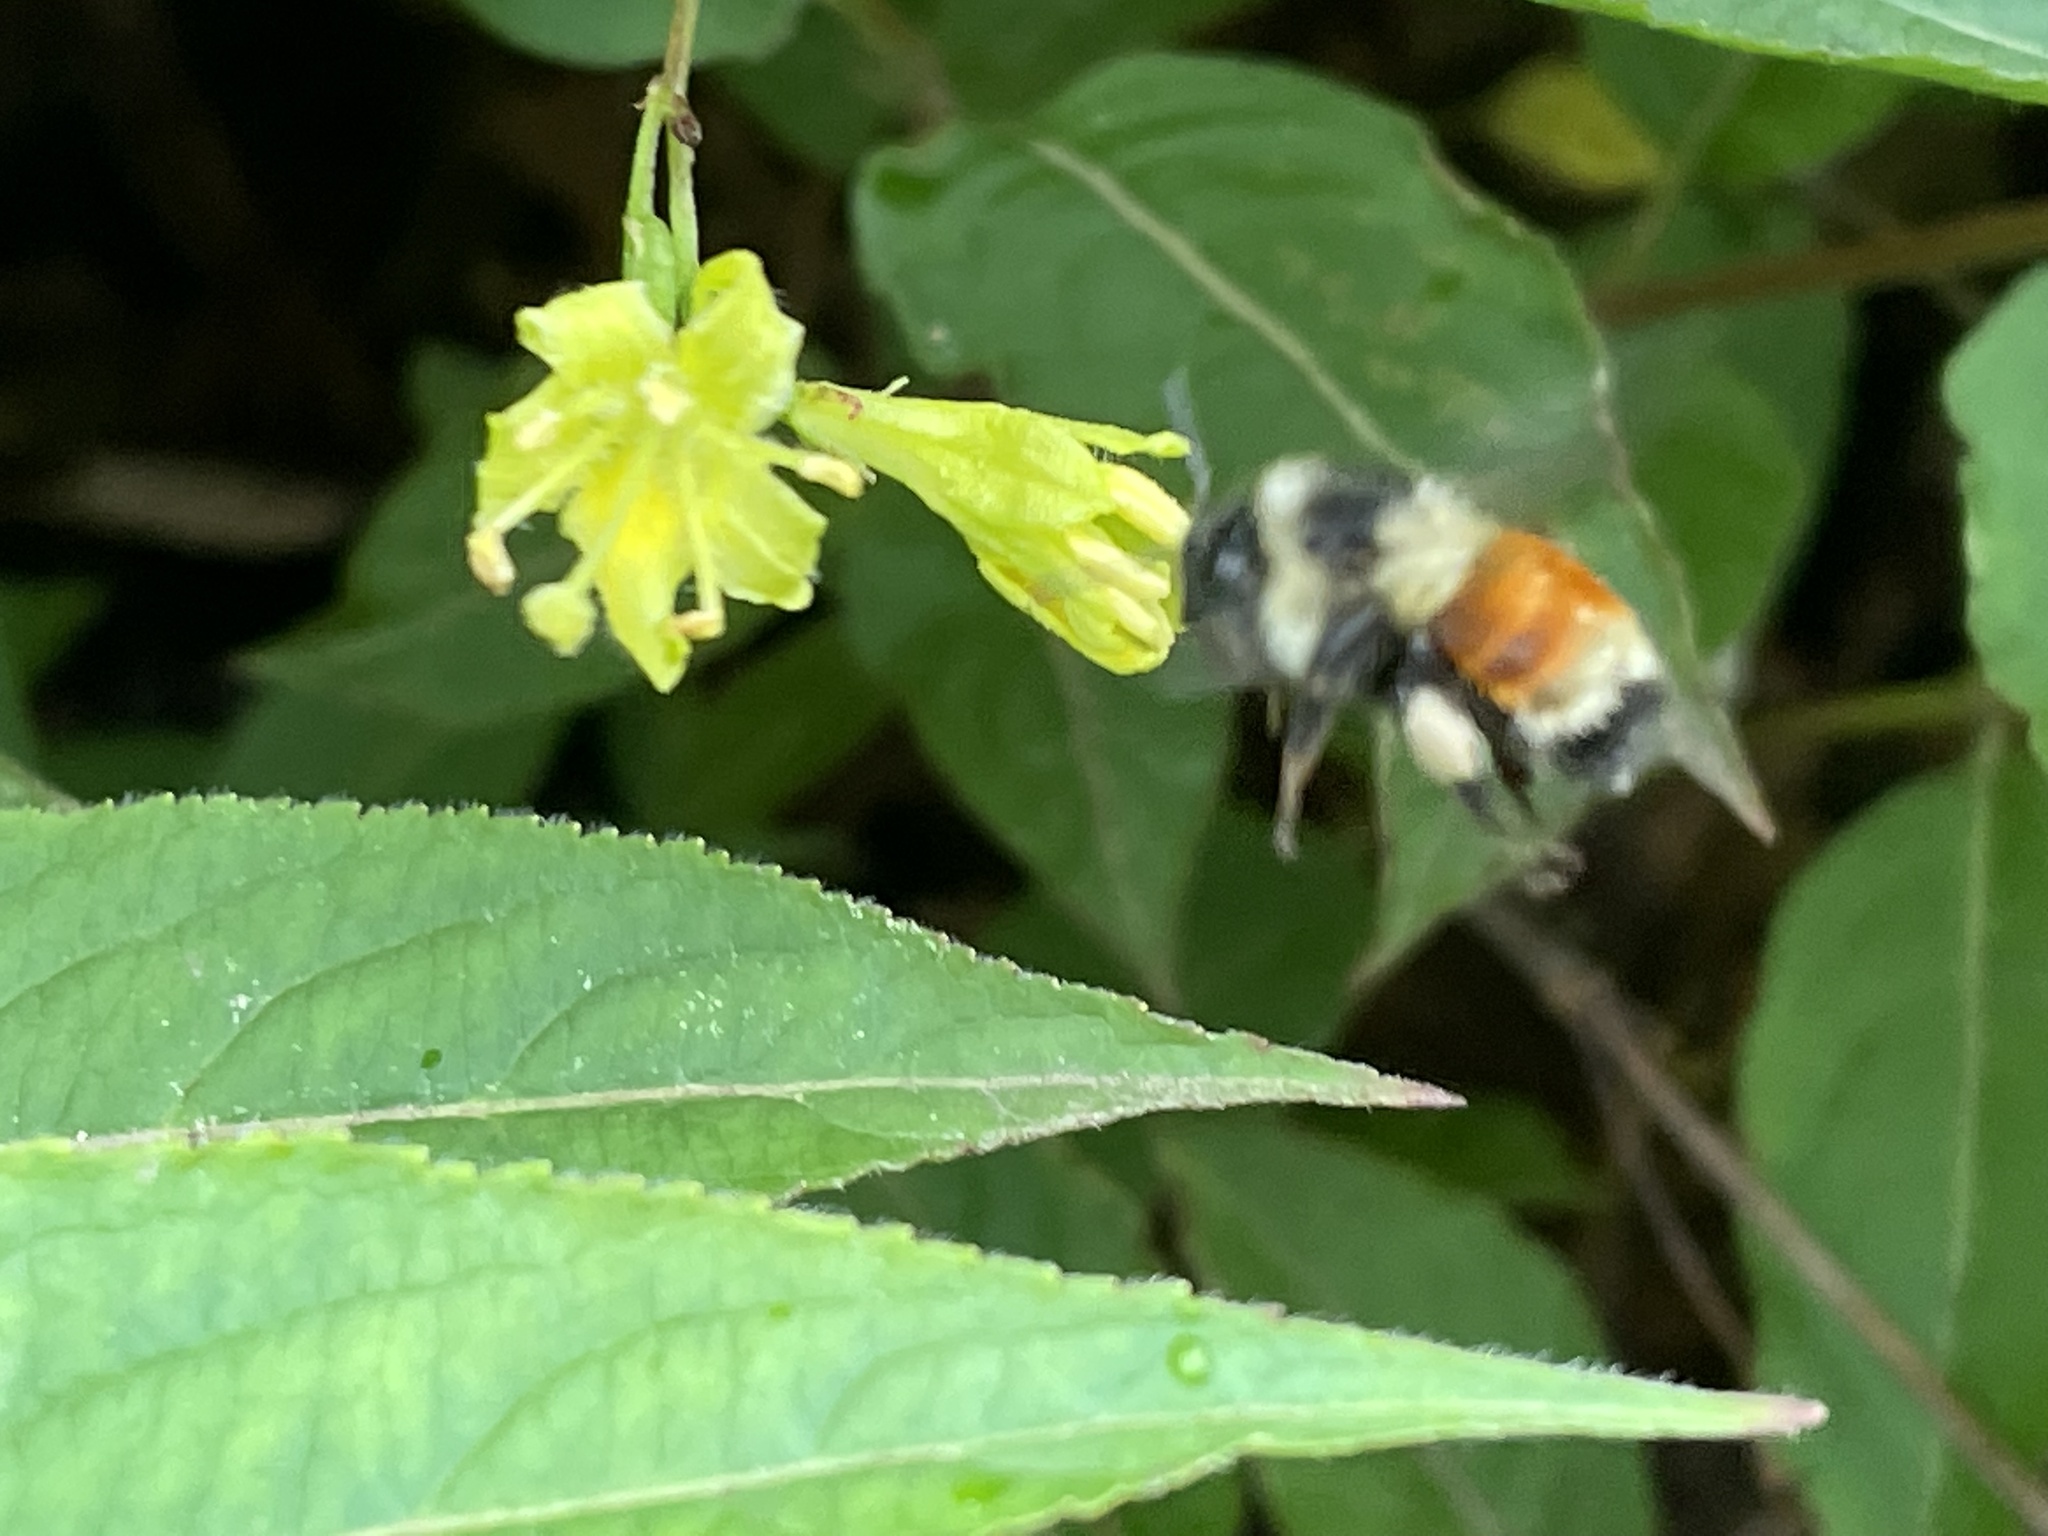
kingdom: Animalia
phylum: Arthropoda
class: Insecta
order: Hymenoptera
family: Apidae
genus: Bombus
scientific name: Bombus ternarius
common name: Tri-colored bumble bee
